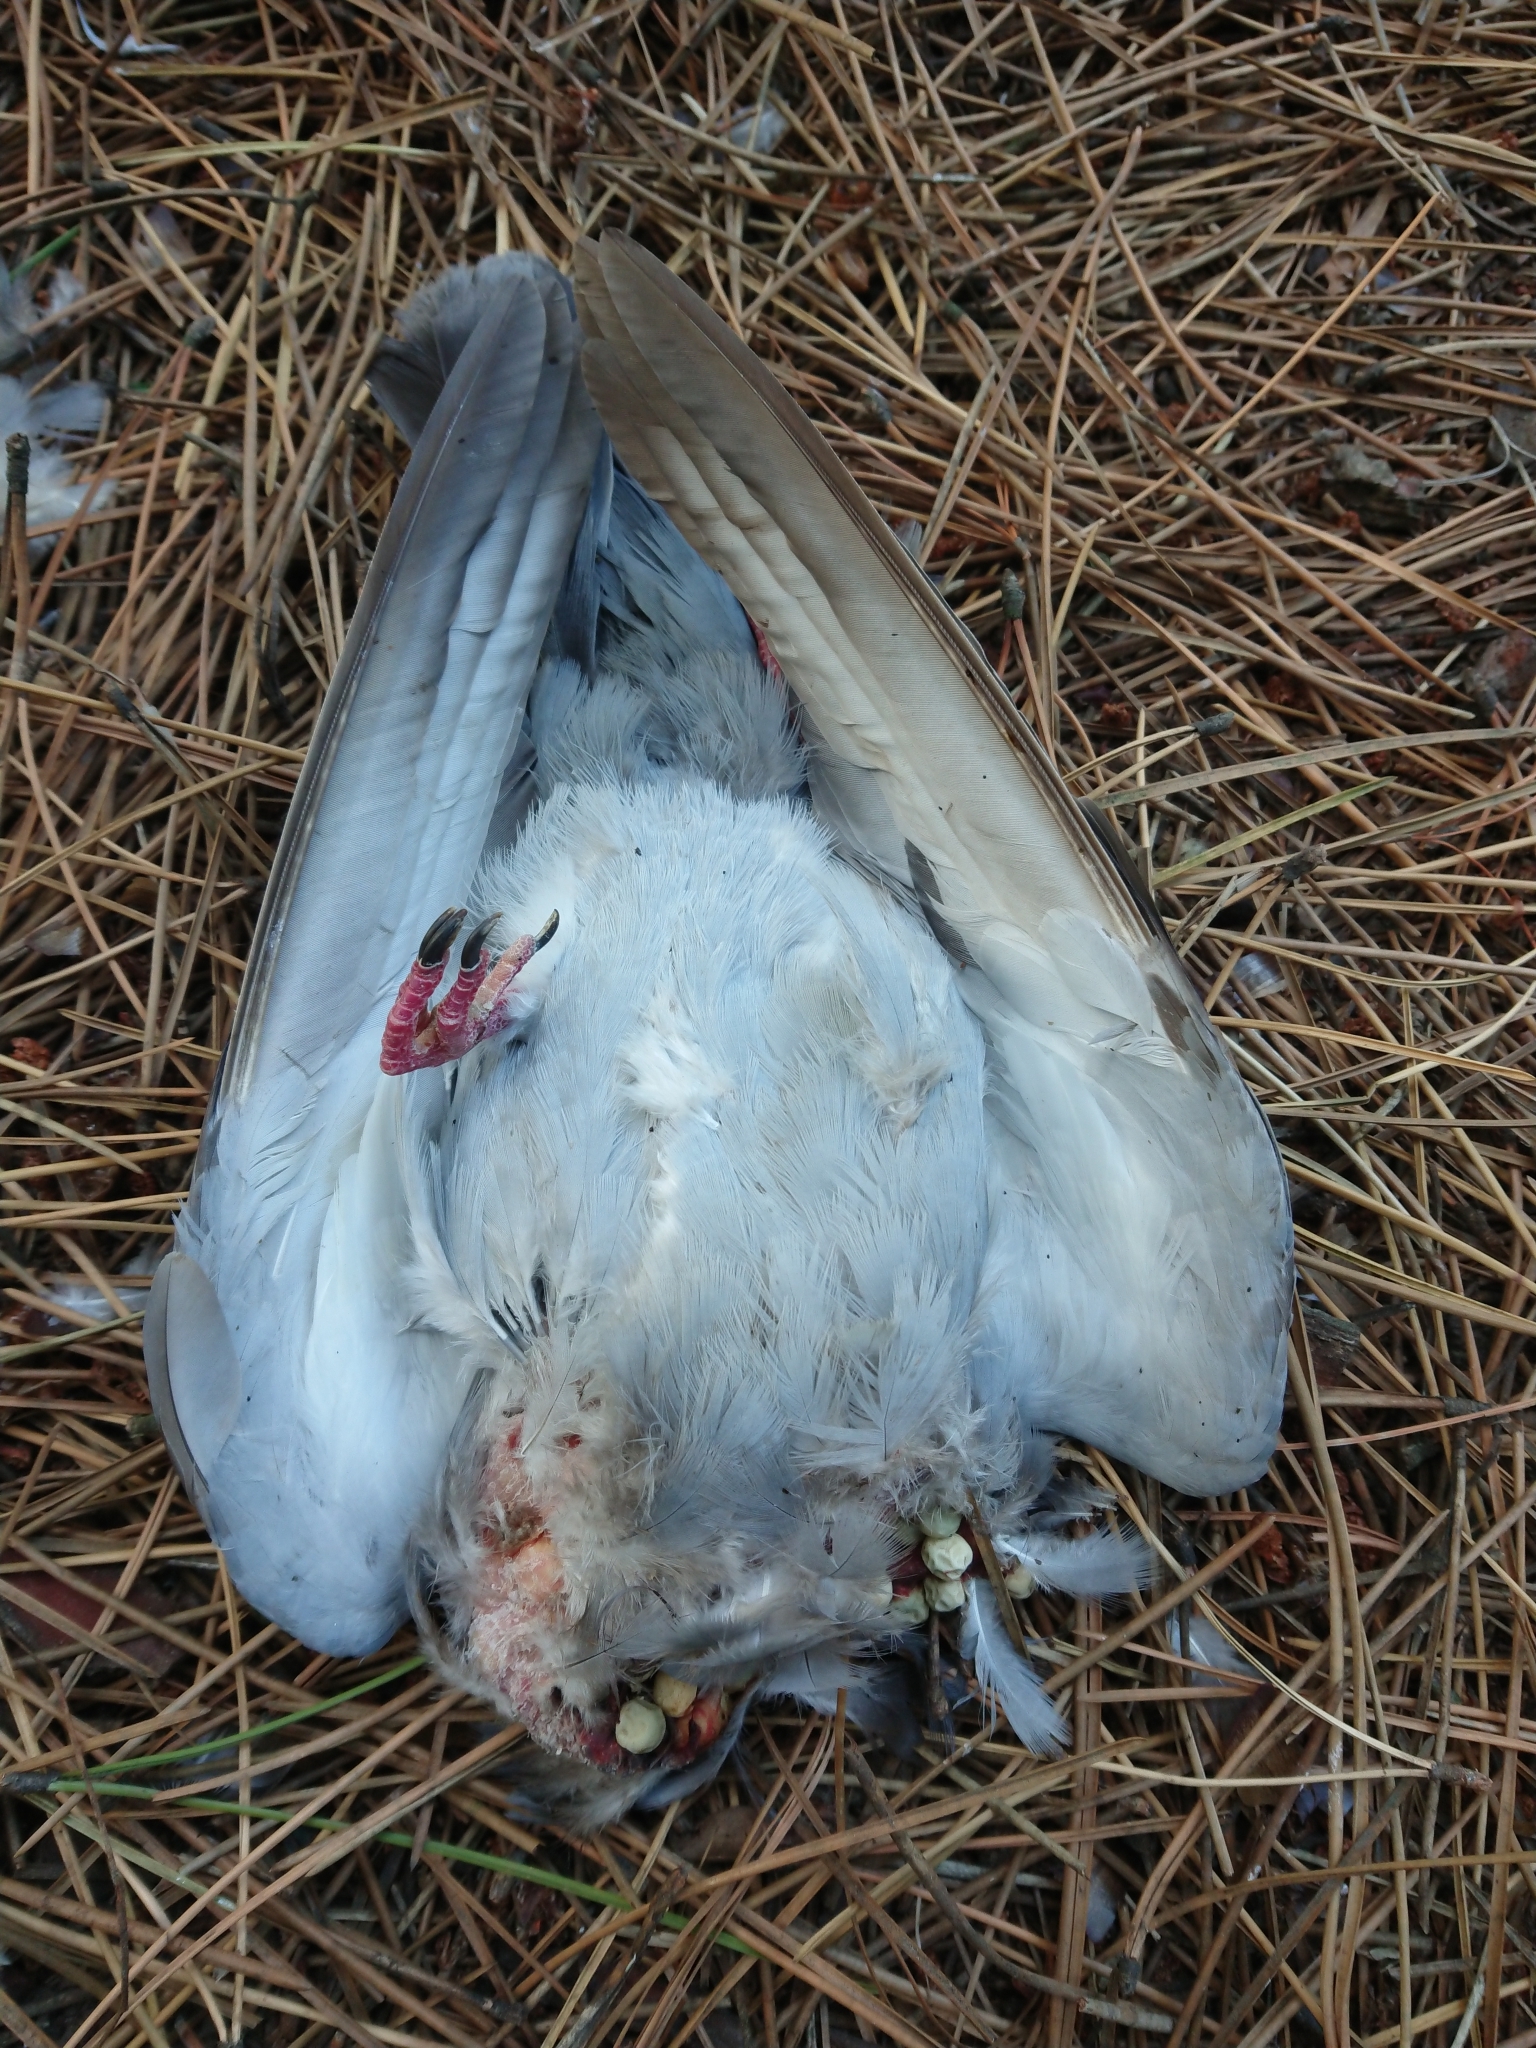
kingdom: Animalia
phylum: Chordata
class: Aves
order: Columbiformes
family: Columbidae
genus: Columba
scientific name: Columba livia
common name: Rock pigeon
